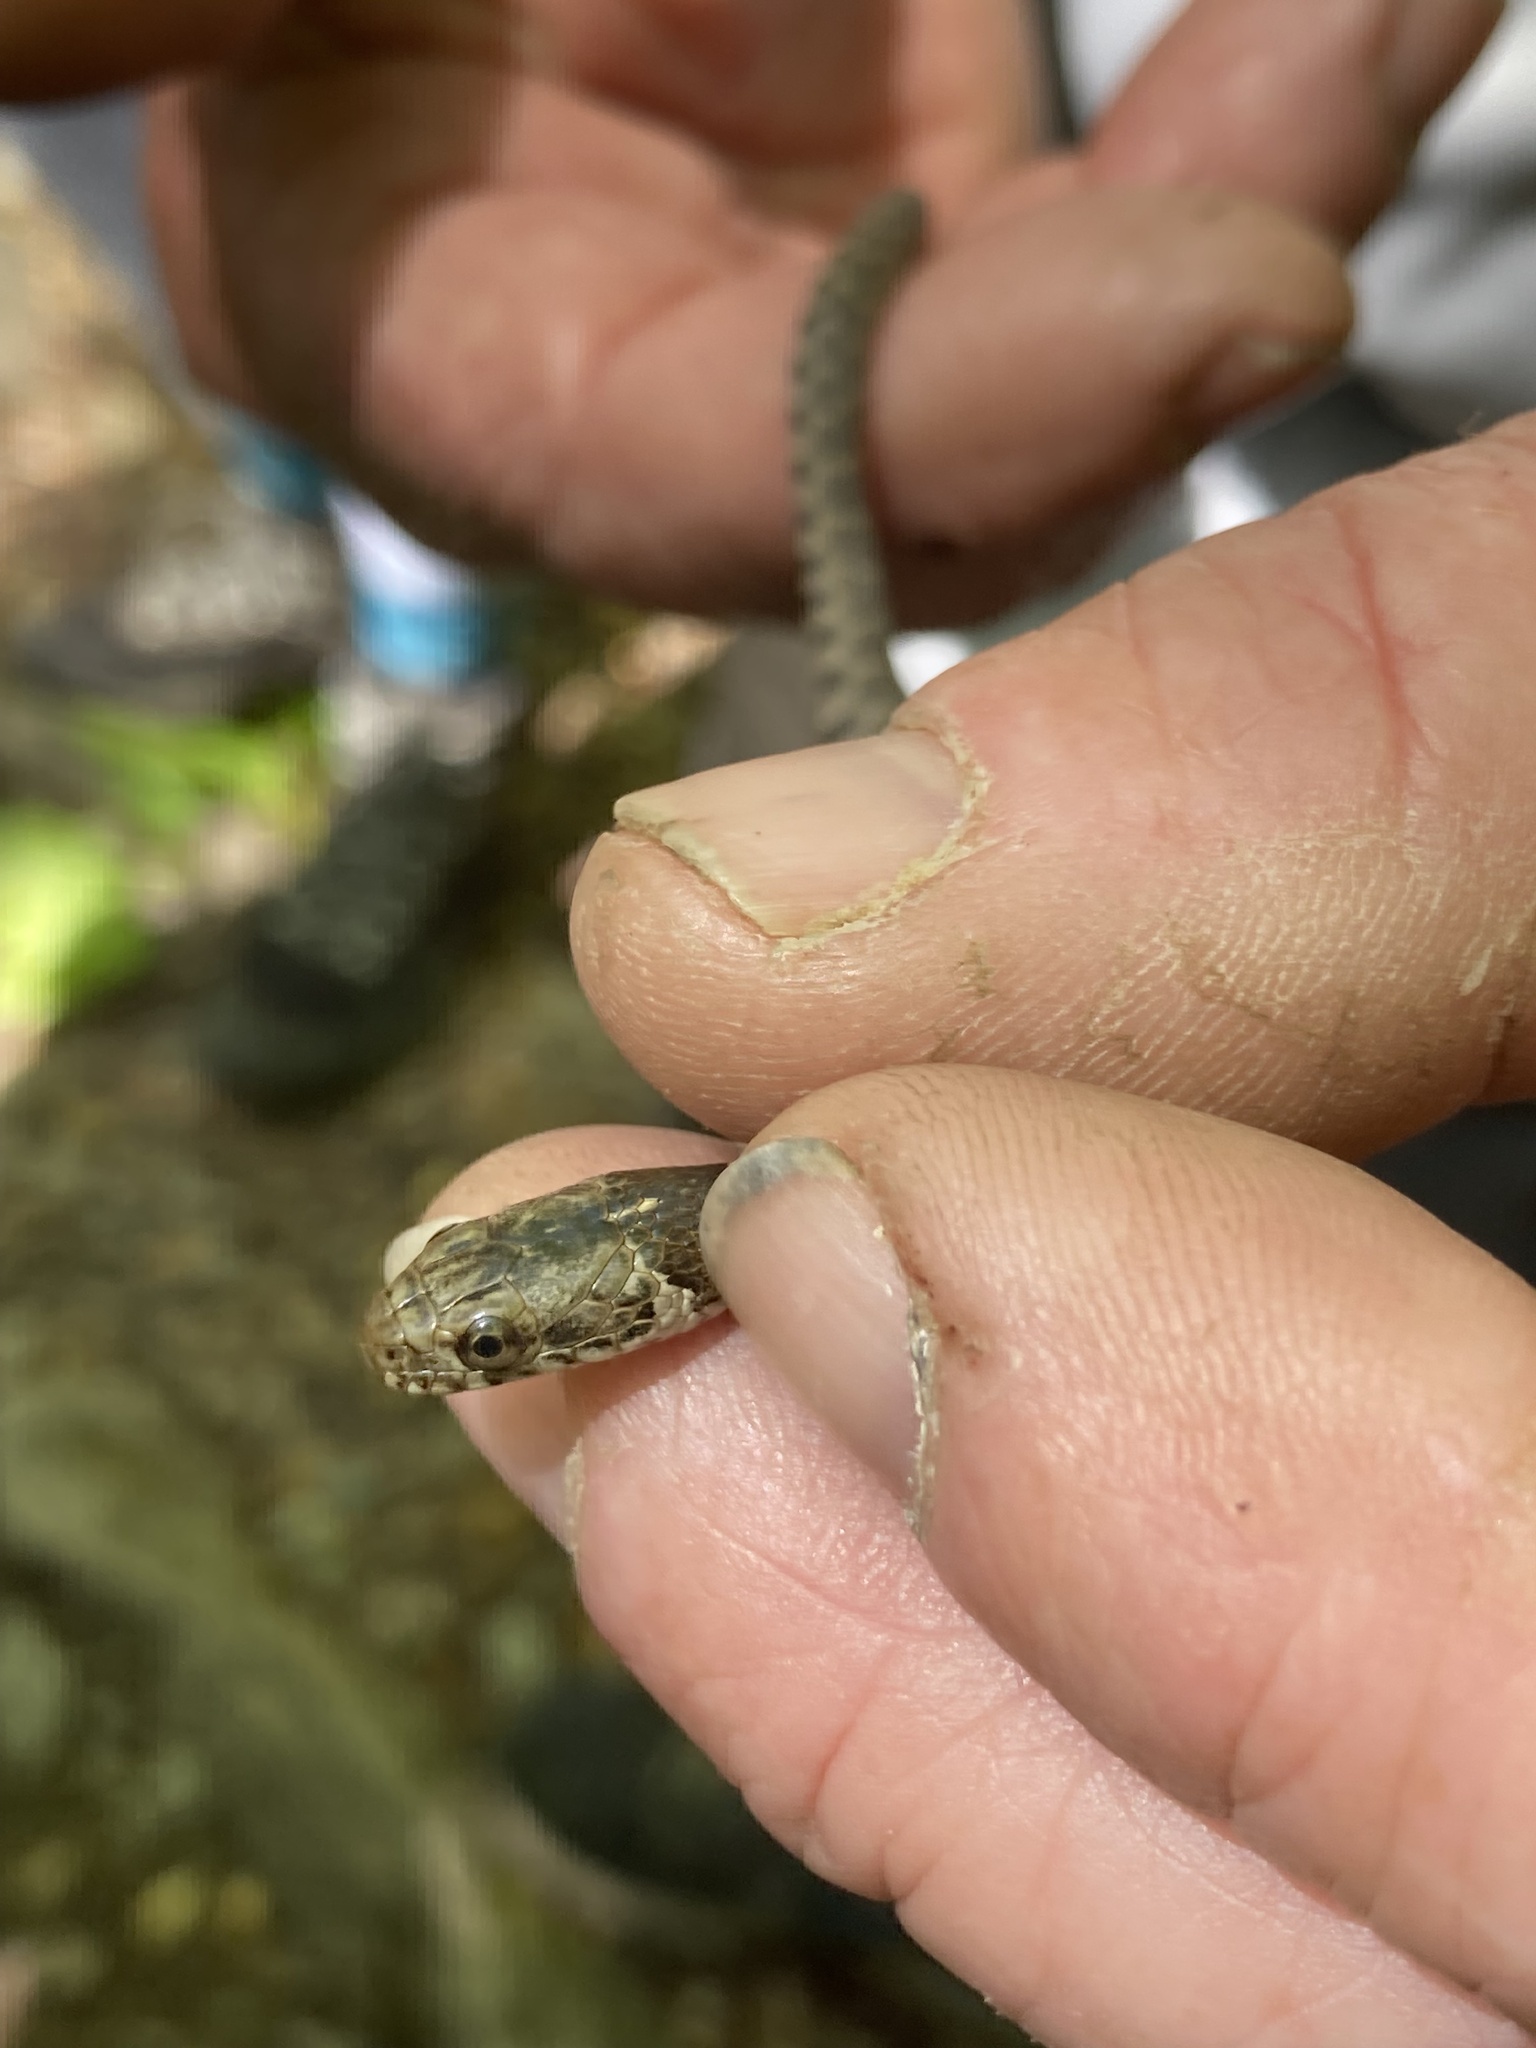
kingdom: Animalia
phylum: Chordata
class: Squamata
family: Colubridae
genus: Nerodia
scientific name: Nerodia sipedon
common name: Northern water snake
